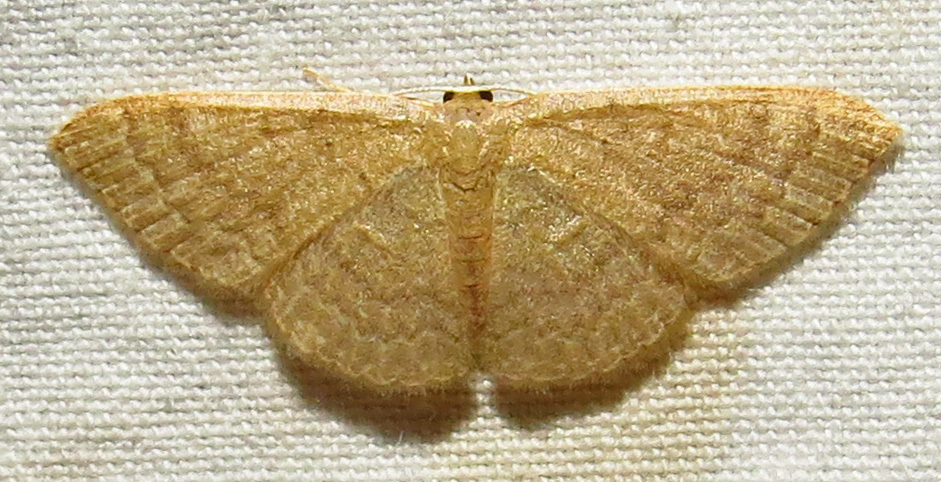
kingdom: Animalia
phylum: Arthropoda
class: Insecta
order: Lepidoptera
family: Geometridae
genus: Pleuroprucha
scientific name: Pleuroprucha insulsaria
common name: Common tan wave
